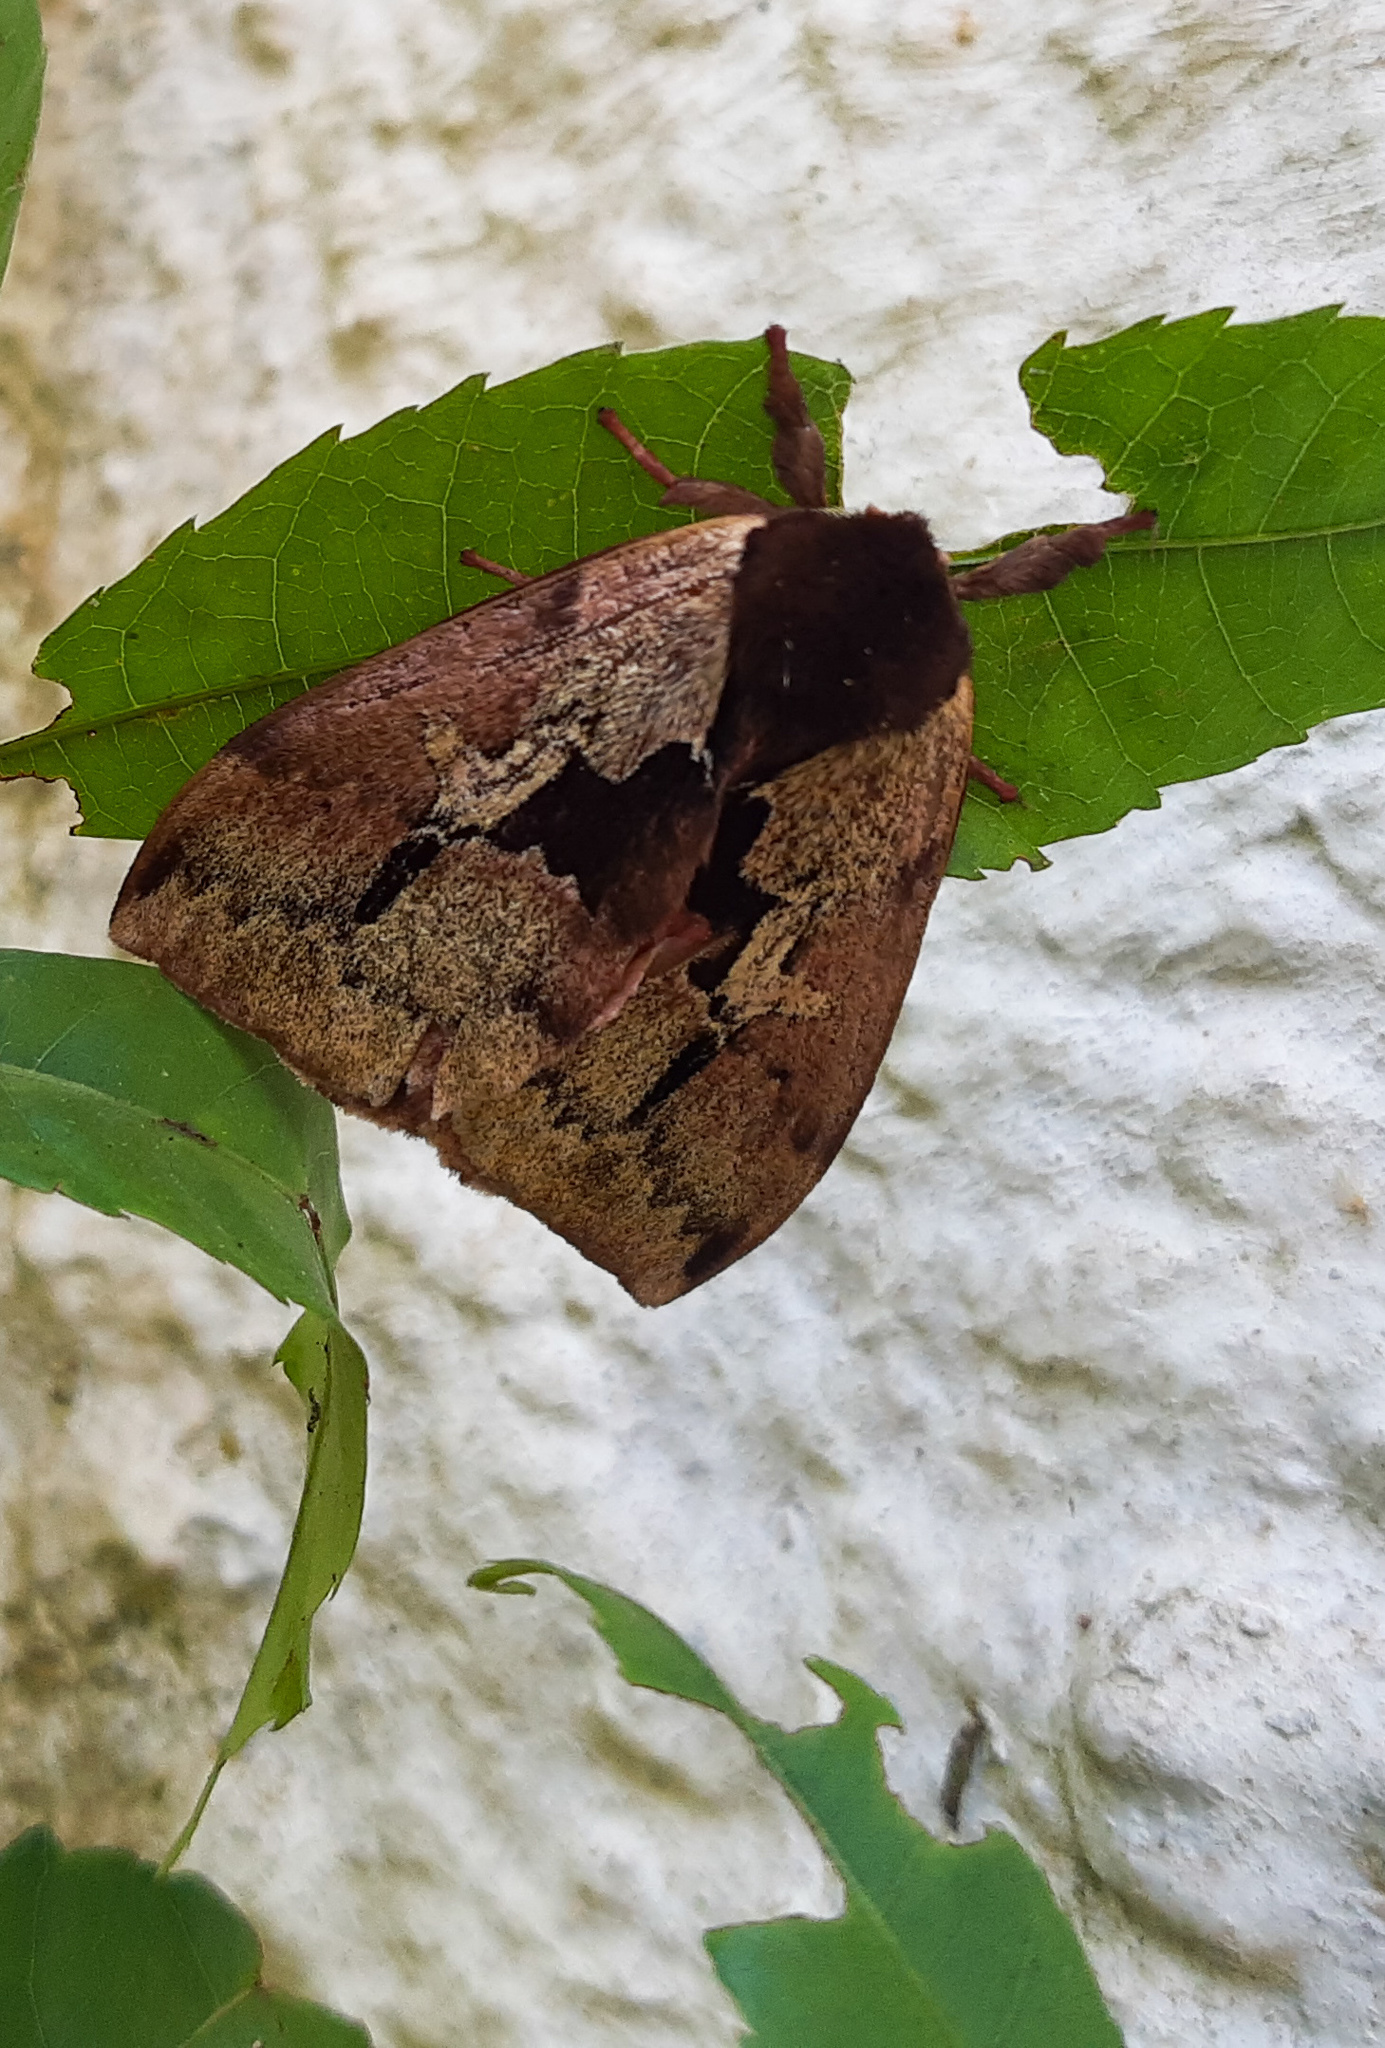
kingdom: Animalia
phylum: Arthropoda
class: Insecta
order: Lepidoptera
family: Saturniidae
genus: Dirphiopsis
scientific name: Dirphiopsis multicolor
